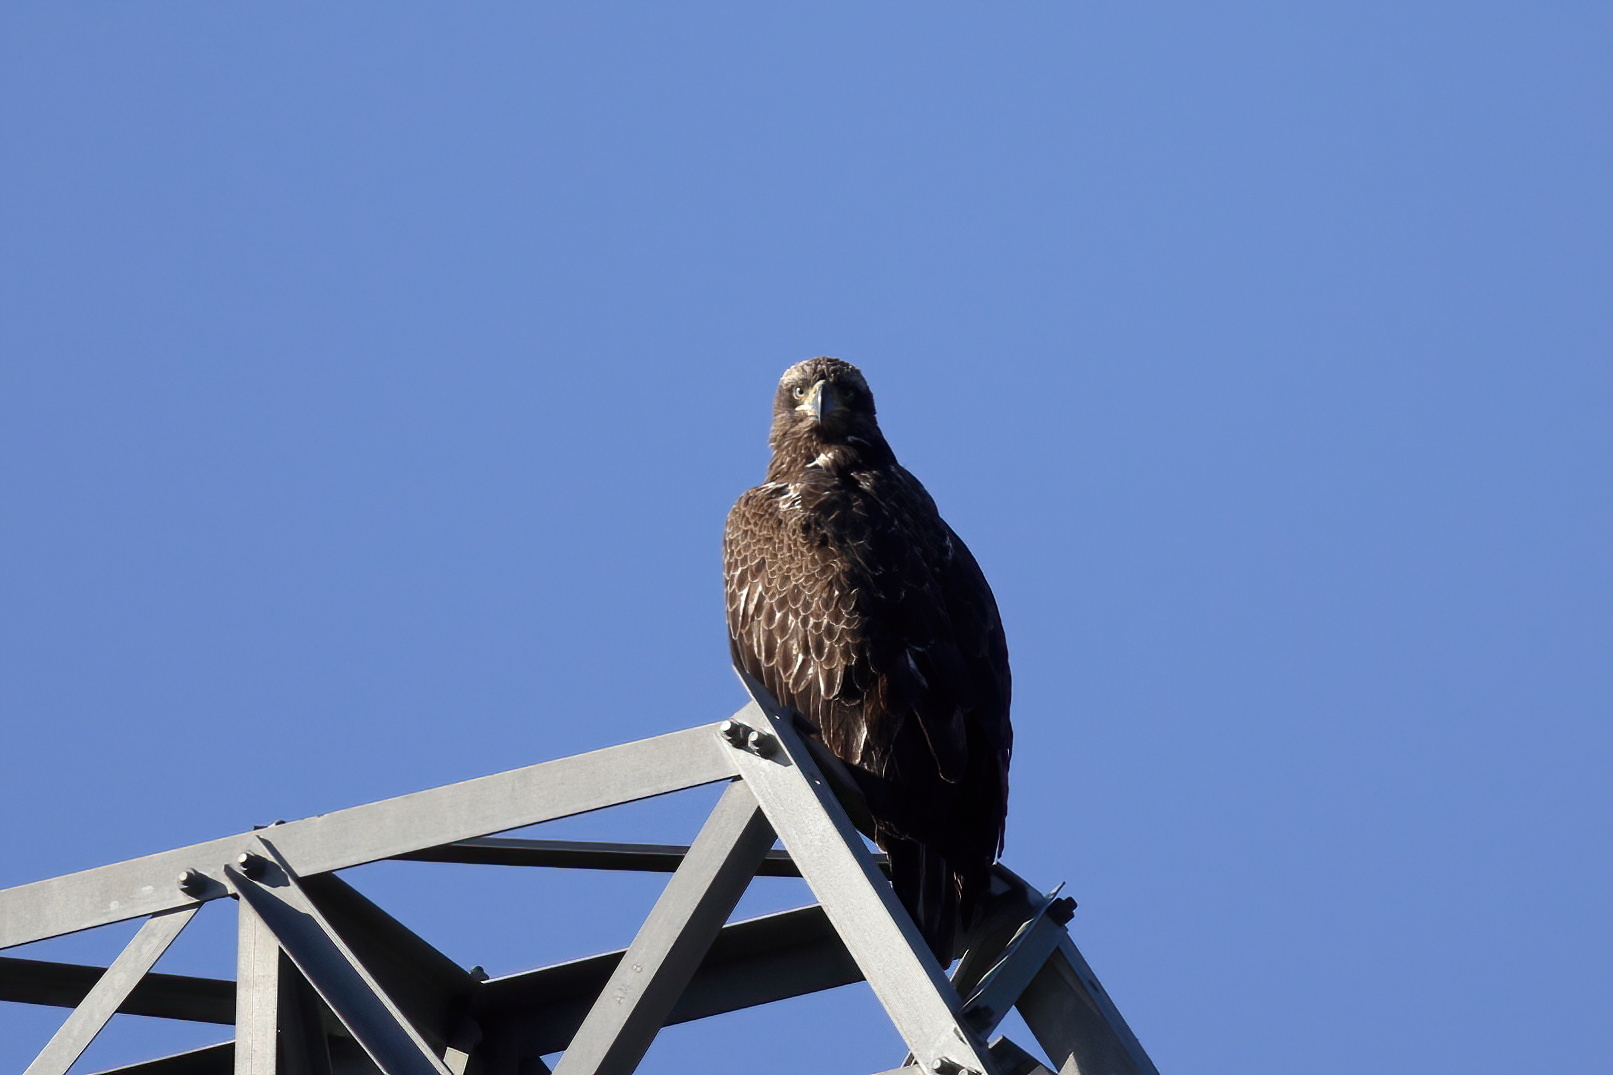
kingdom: Animalia
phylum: Chordata
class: Aves
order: Accipitriformes
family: Accipitridae
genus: Haliaeetus
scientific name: Haliaeetus leucocephalus
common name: Bald eagle
